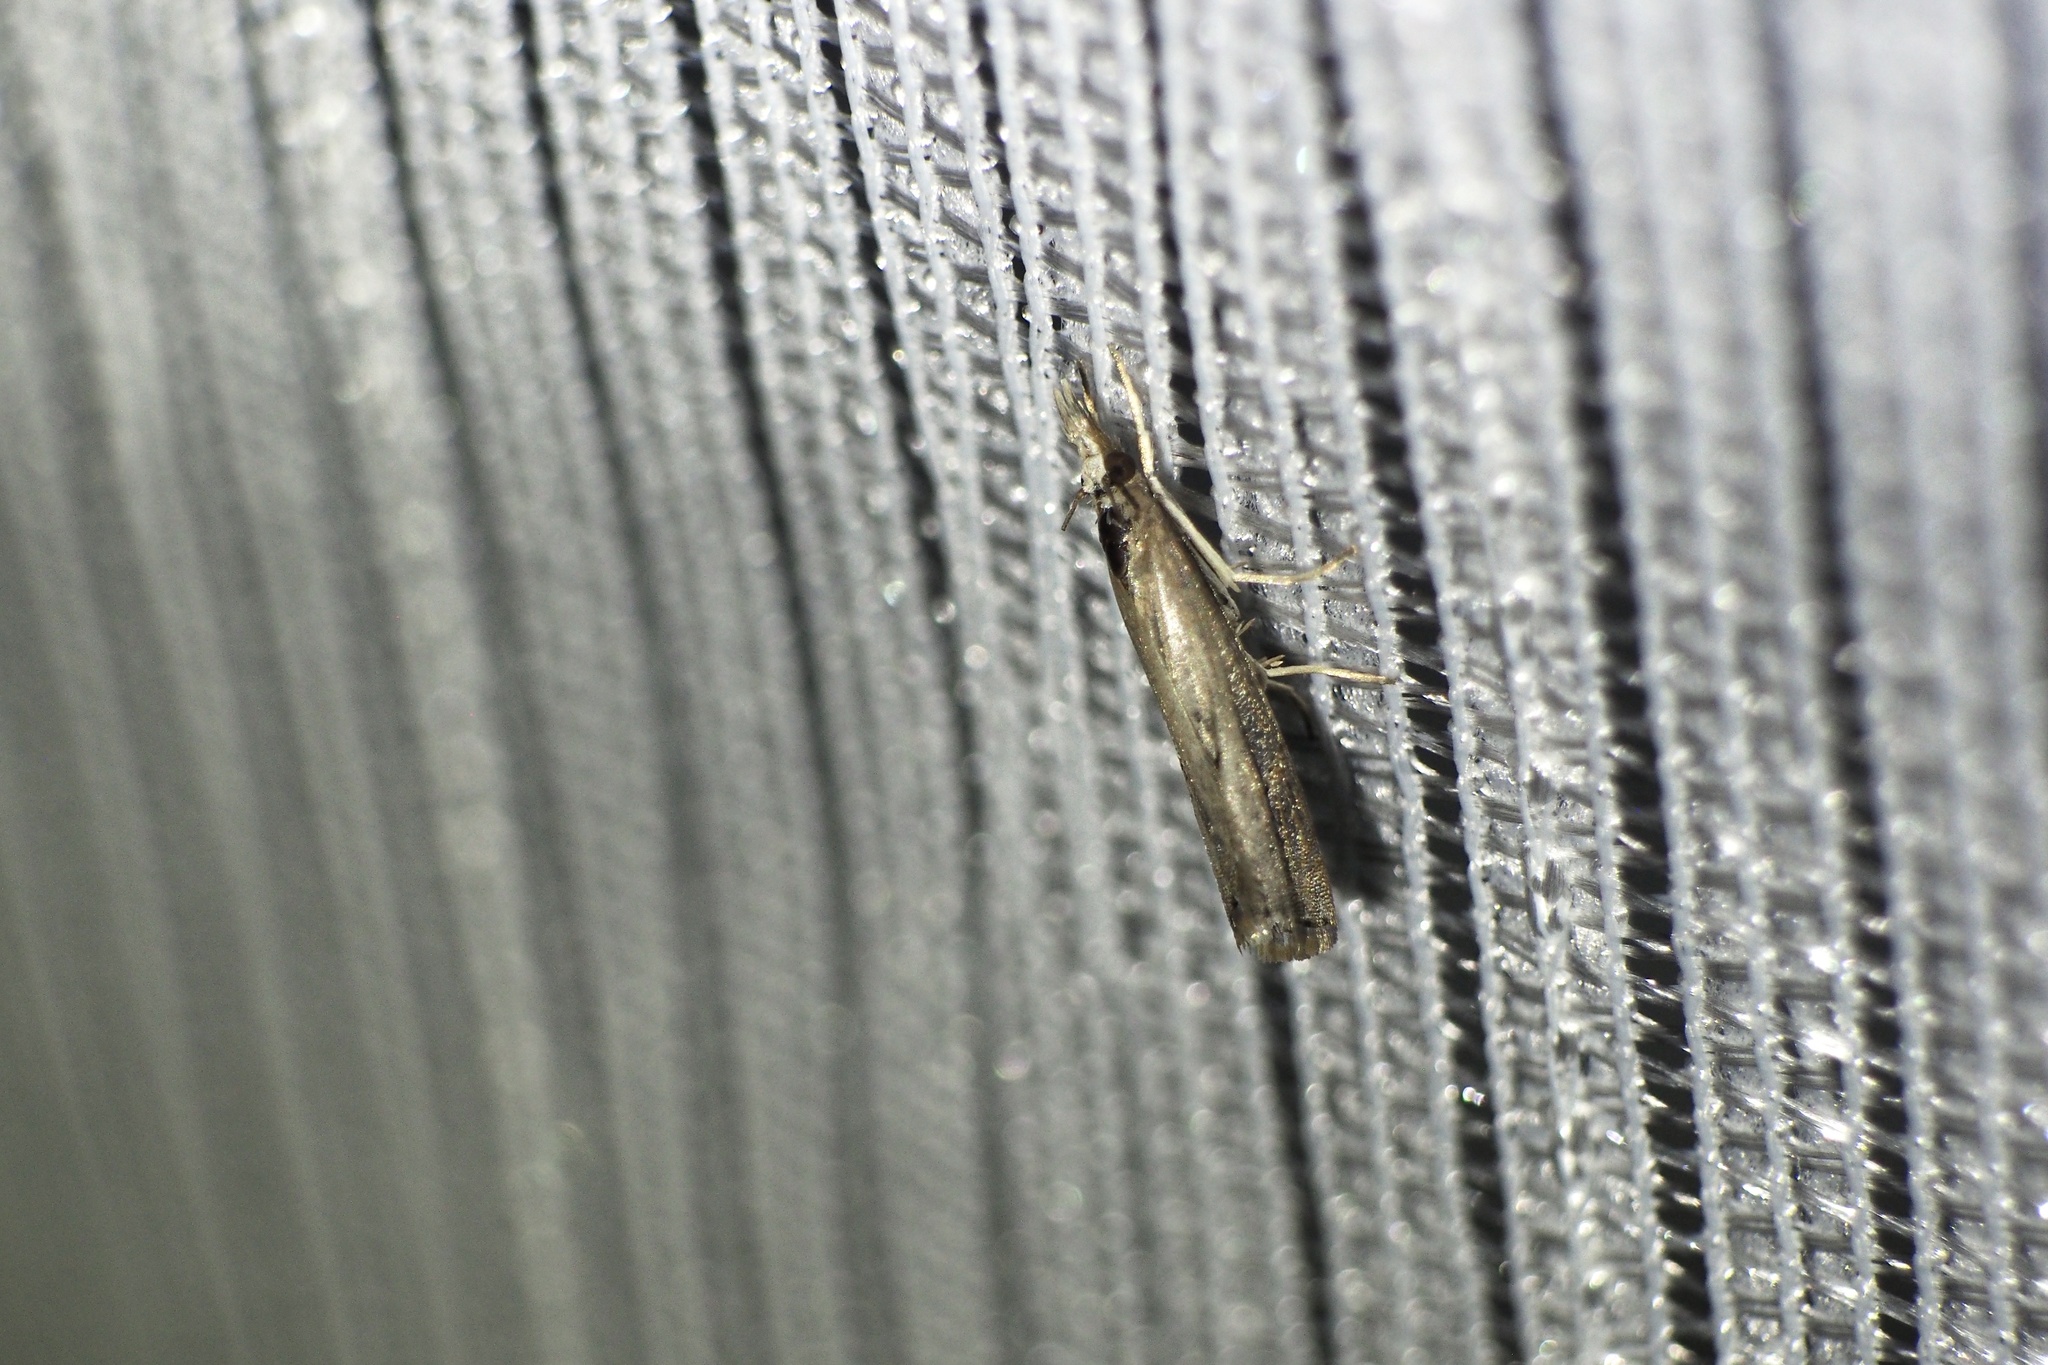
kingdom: Animalia
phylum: Arthropoda
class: Insecta
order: Lepidoptera
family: Crambidae
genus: Parapediasia
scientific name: Parapediasia teterellus
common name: Bluegrass webworm moth
